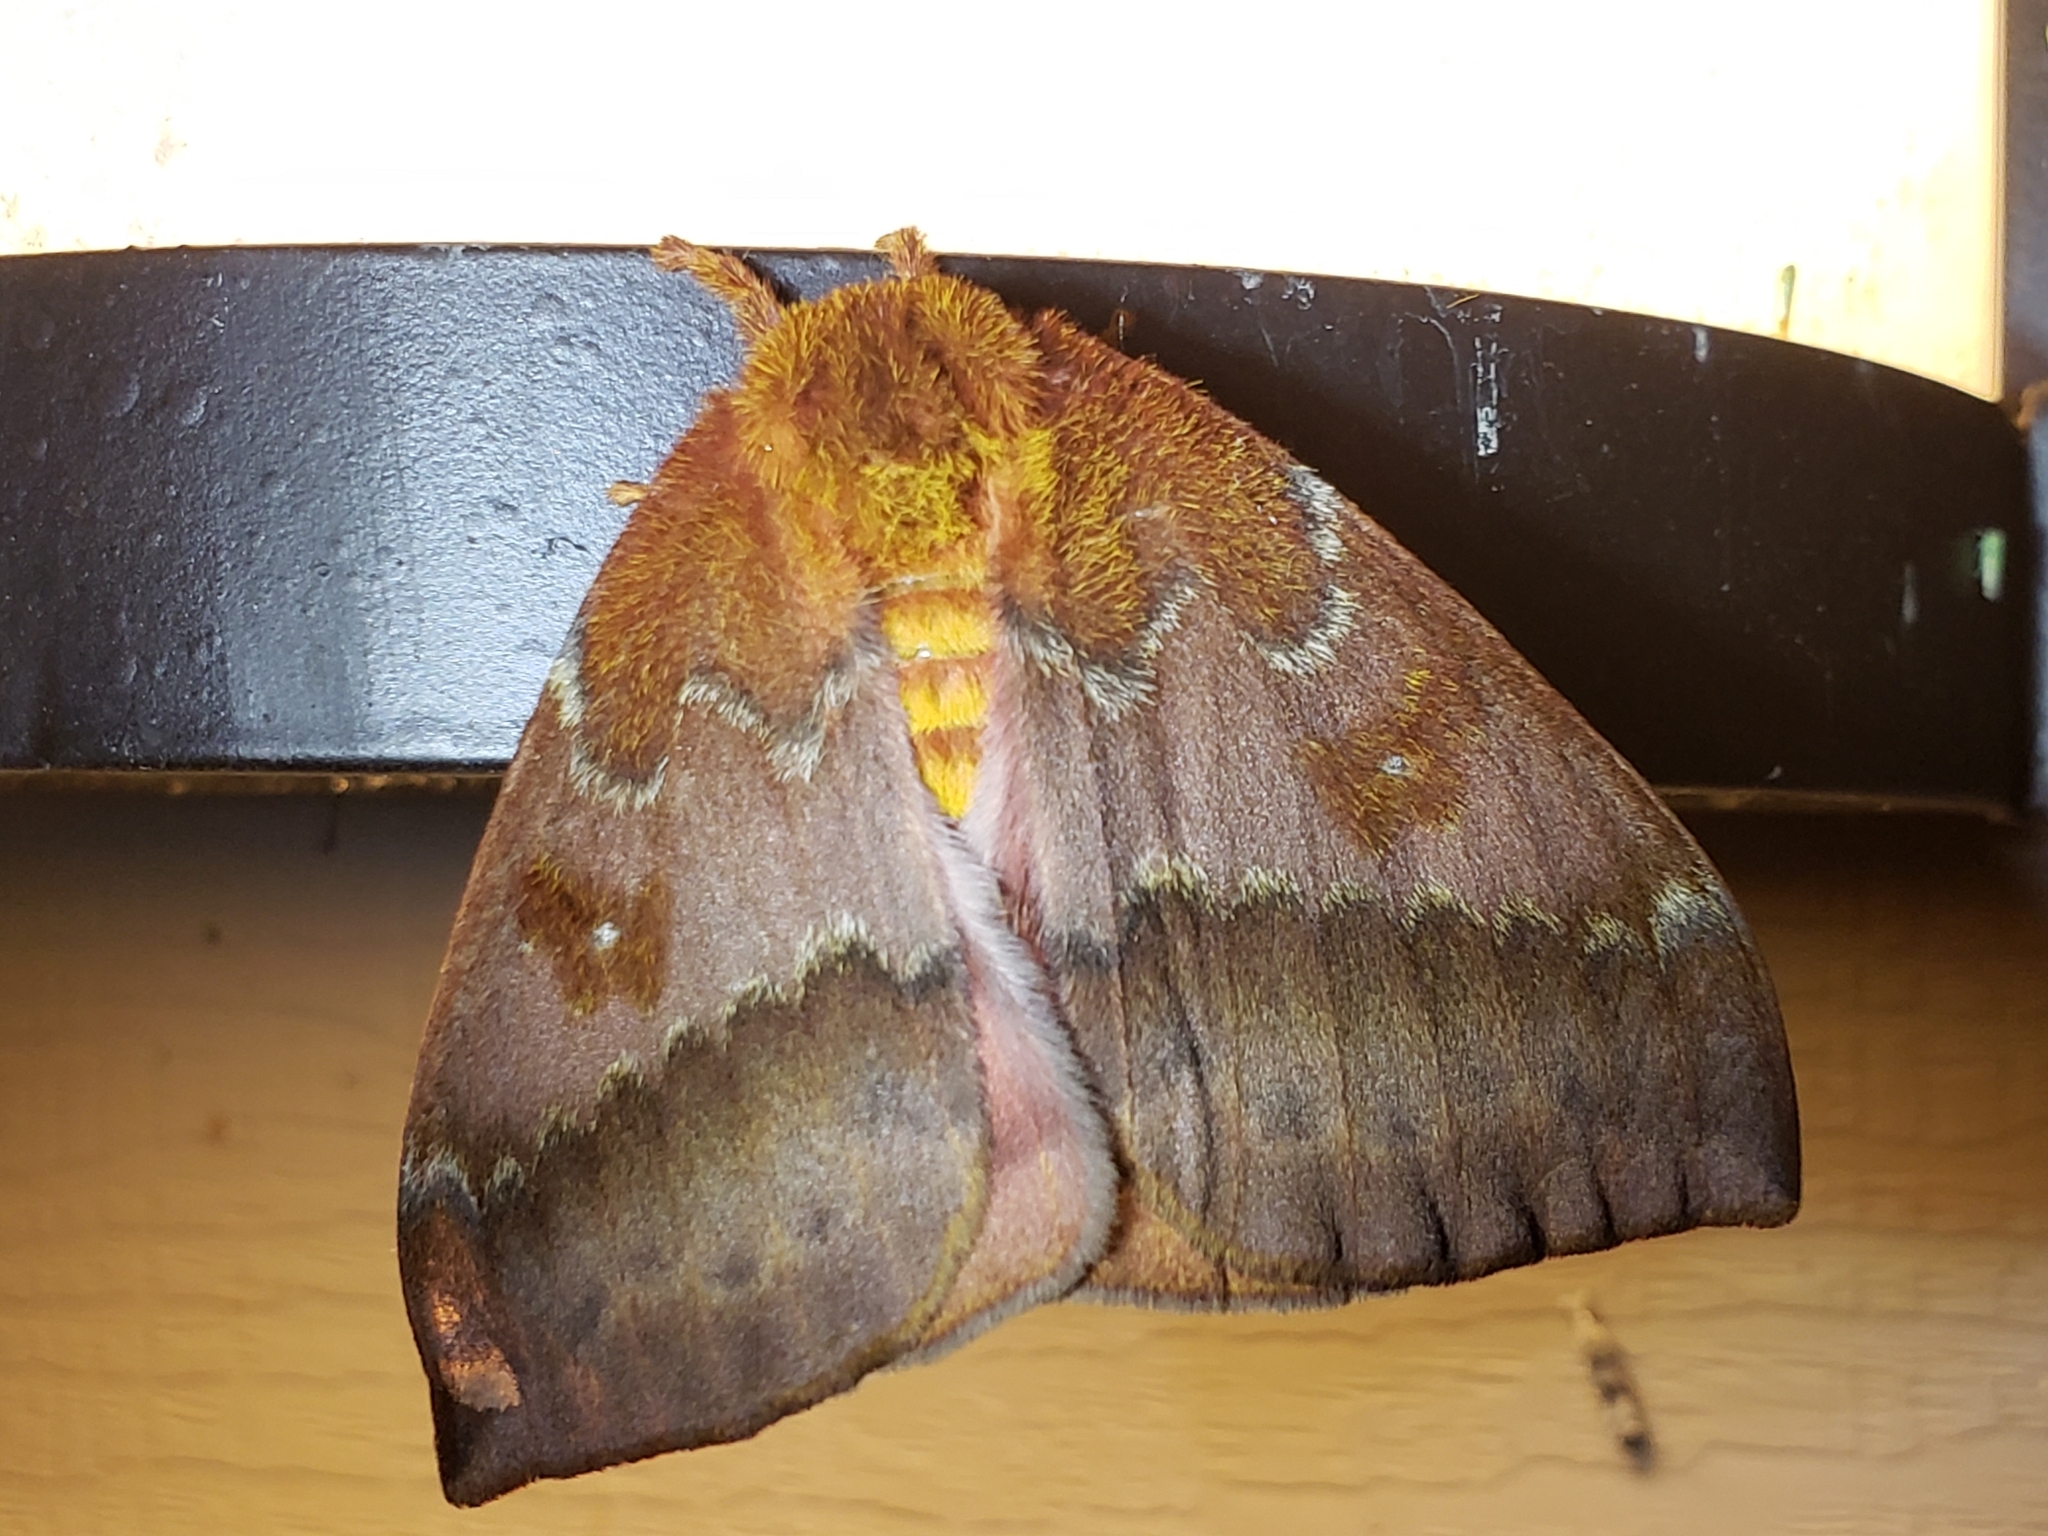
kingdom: Animalia
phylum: Arthropoda
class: Insecta
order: Lepidoptera
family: Saturniidae
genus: Automeris
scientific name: Automeris io
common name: Io moth
